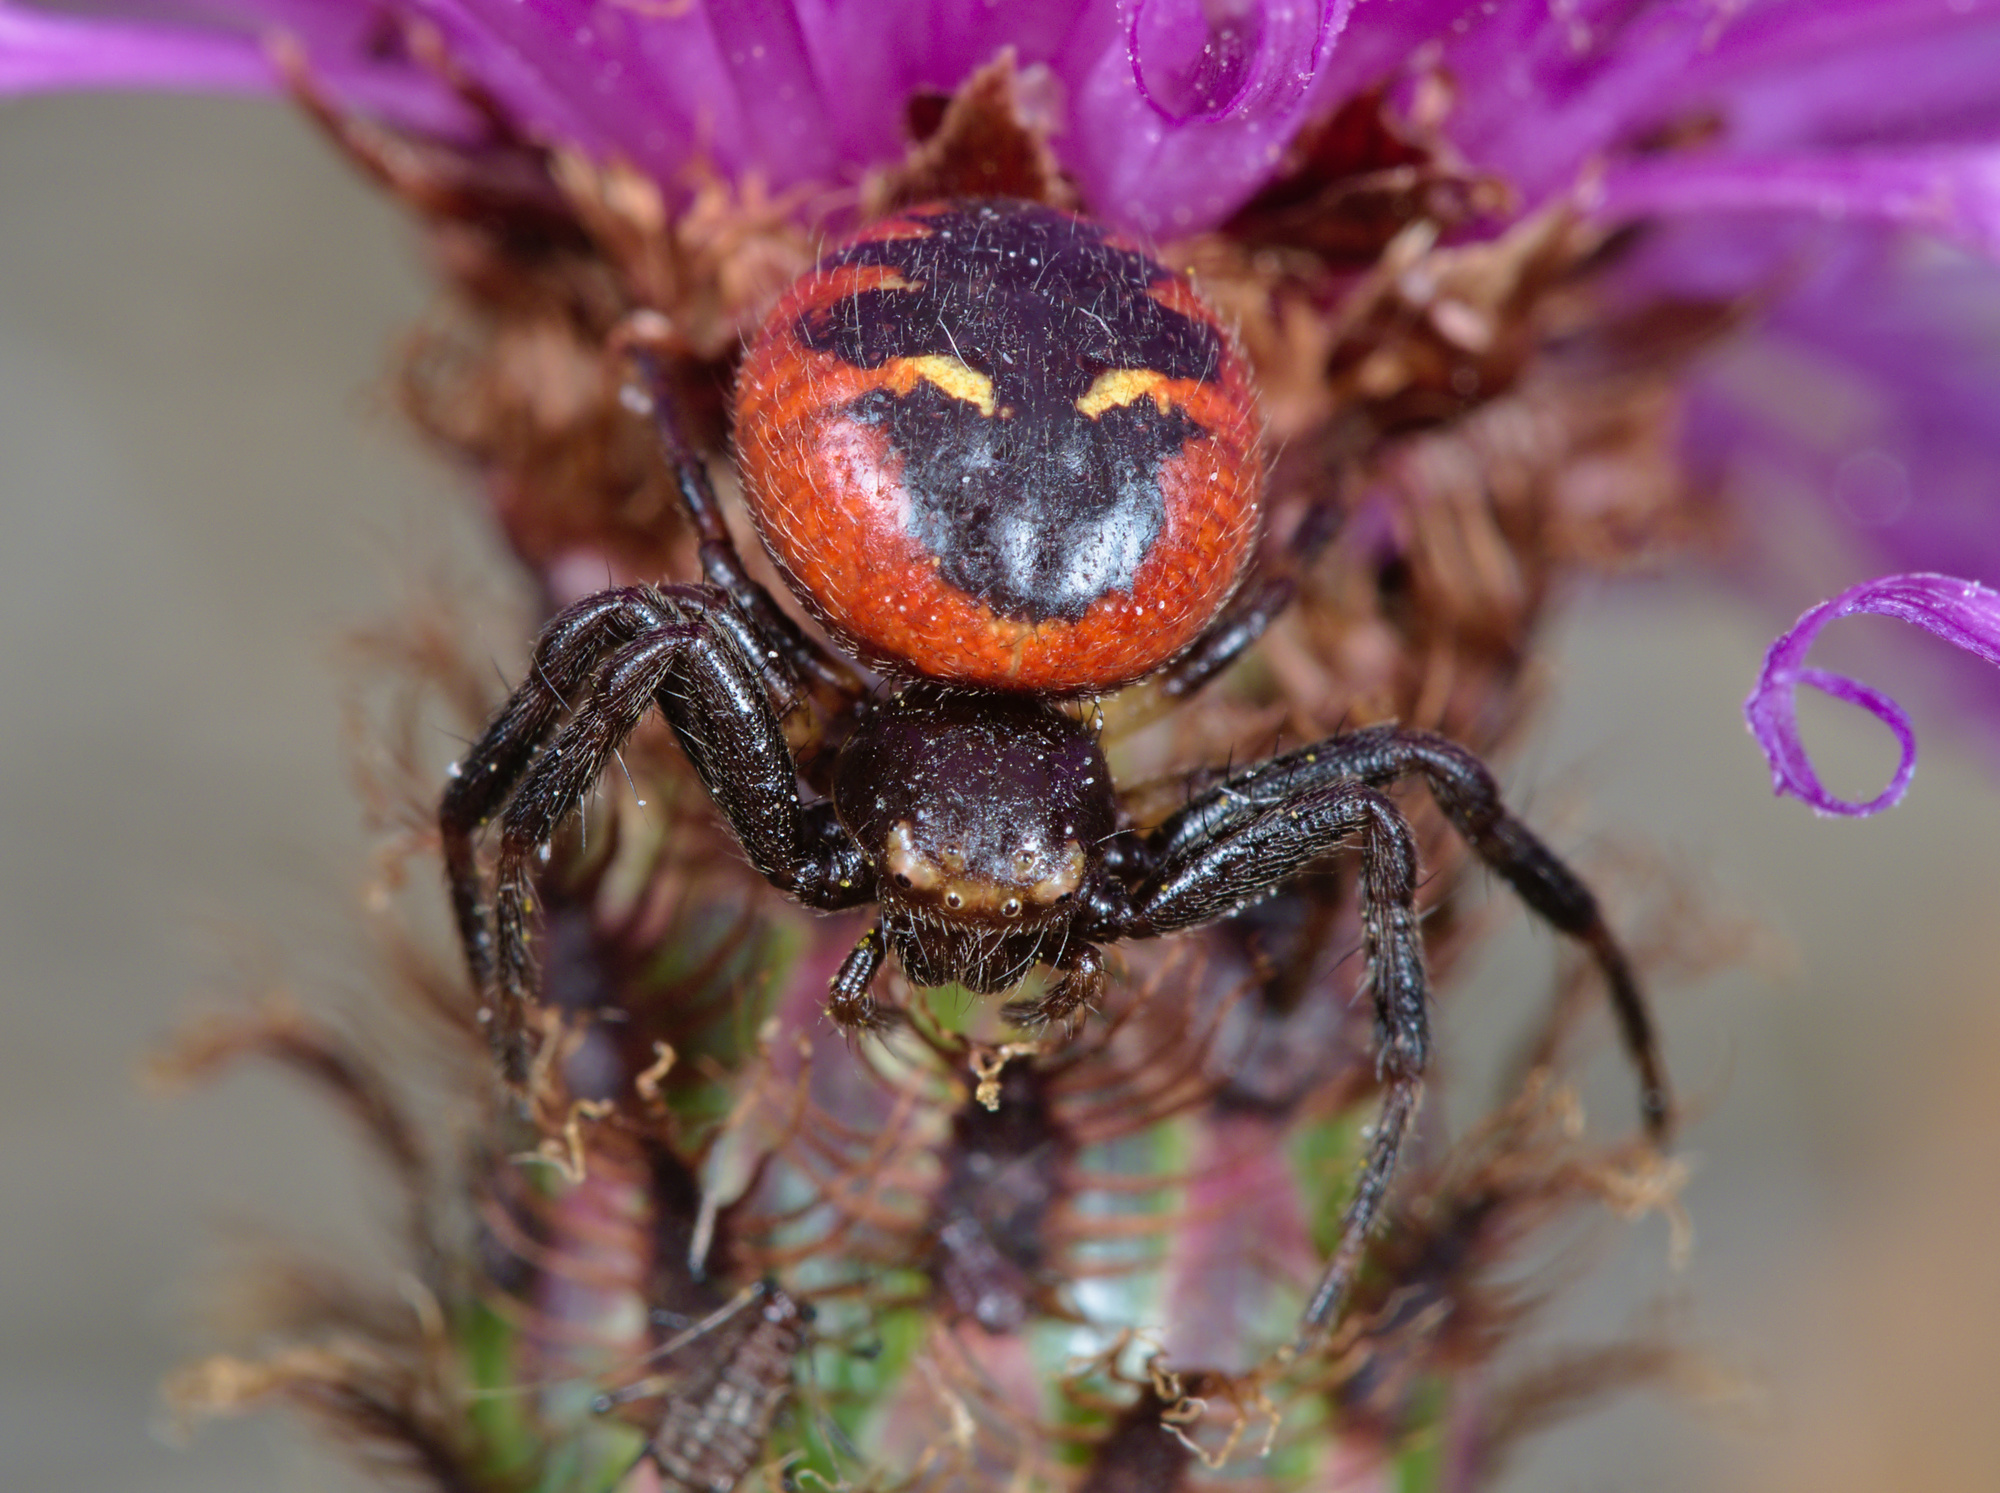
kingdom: Animalia
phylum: Arthropoda
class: Arachnida
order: Araneae
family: Thomisidae
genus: Synema
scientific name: Synema globosum
